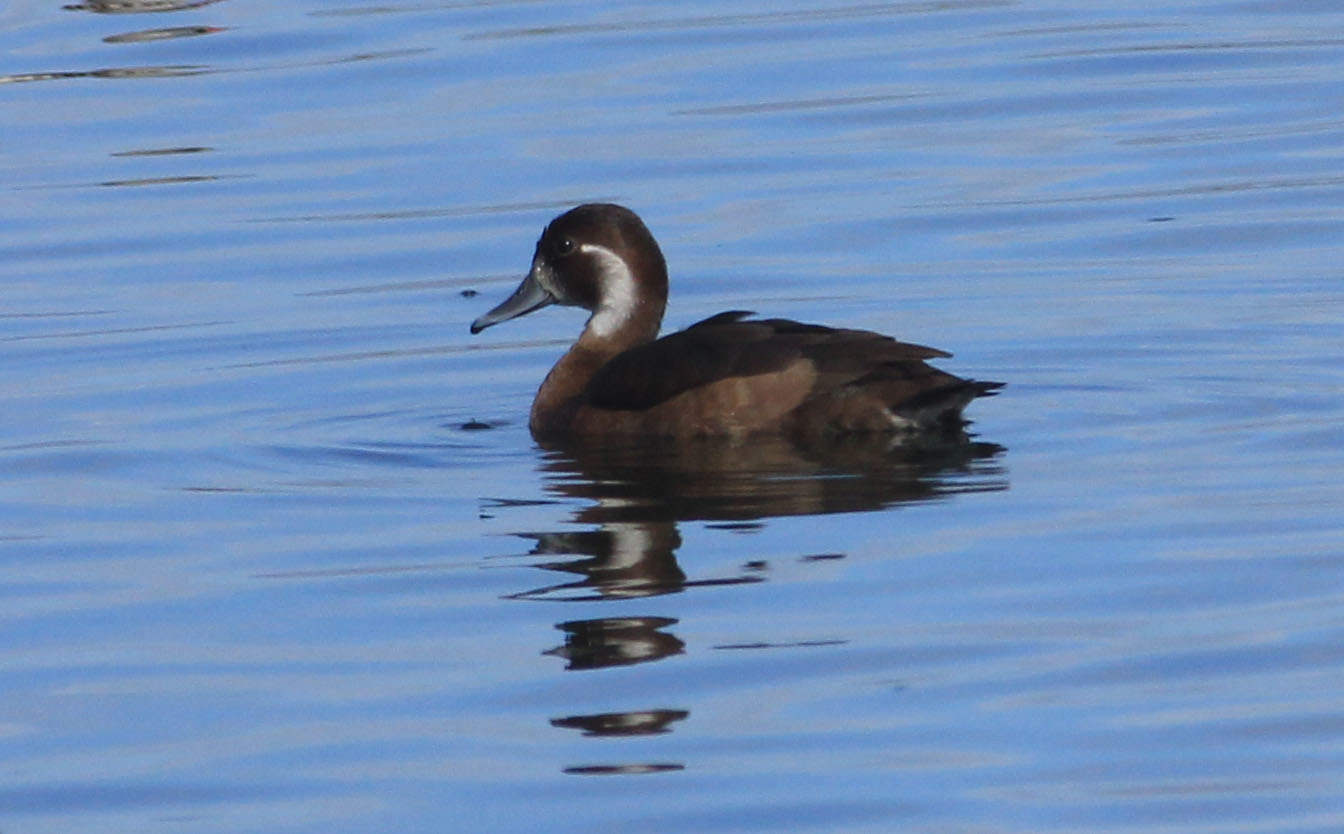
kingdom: Animalia
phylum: Chordata
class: Aves
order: Anseriformes
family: Anatidae
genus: Netta
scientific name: Netta erythrophthalma
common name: Southern pochard
